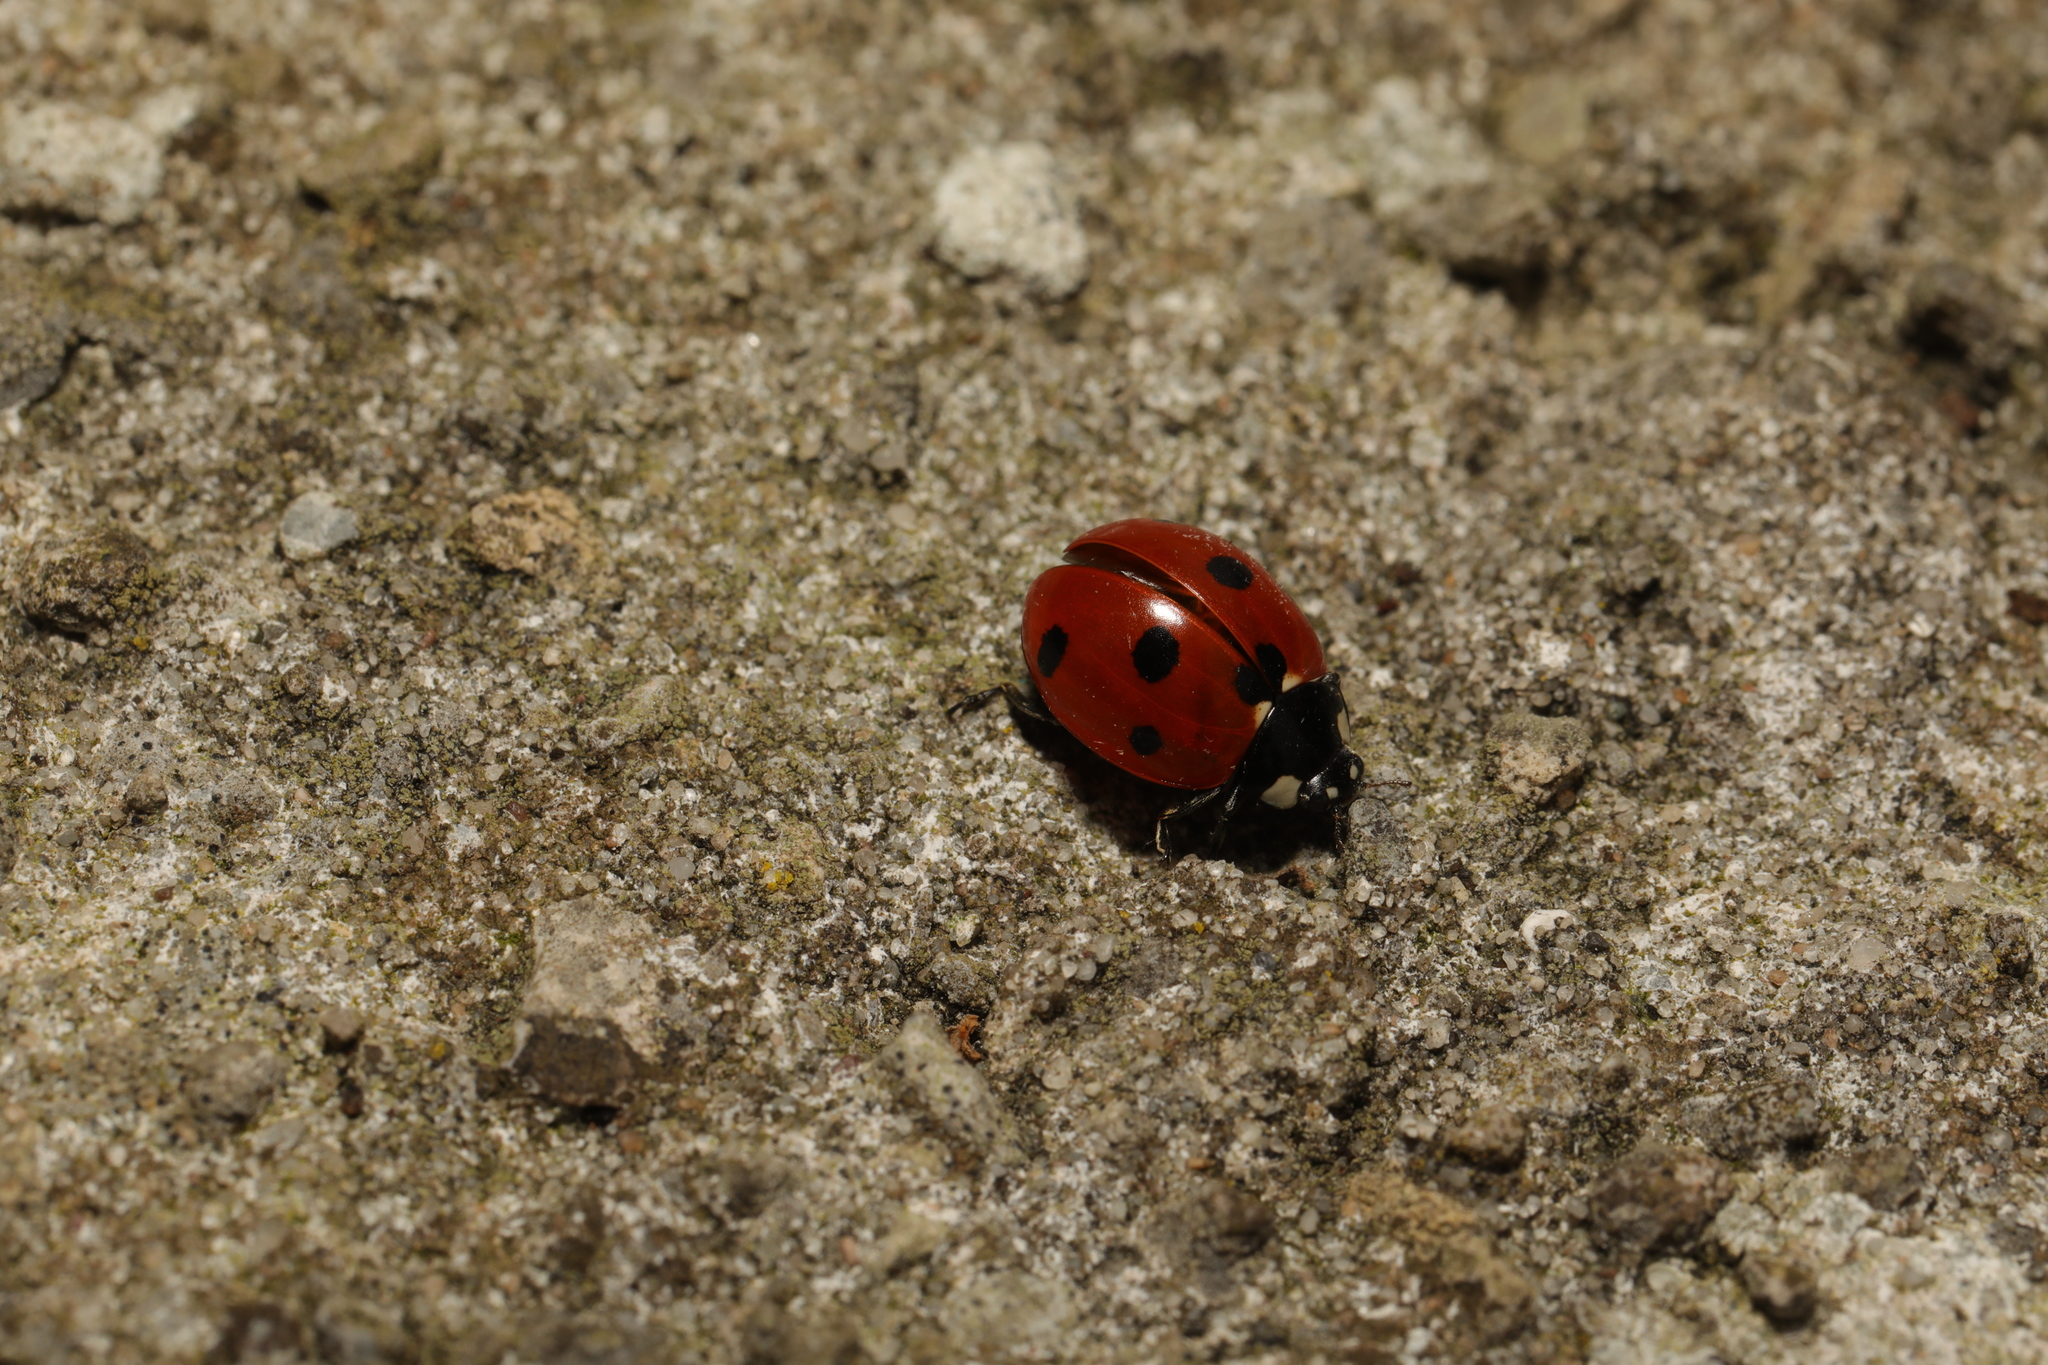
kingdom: Animalia
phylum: Arthropoda
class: Insecta
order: Coleoptera
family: Coccinellidae
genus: Coccinella
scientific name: Coccinella septempunctata
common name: Sevenspotted lady beetle
